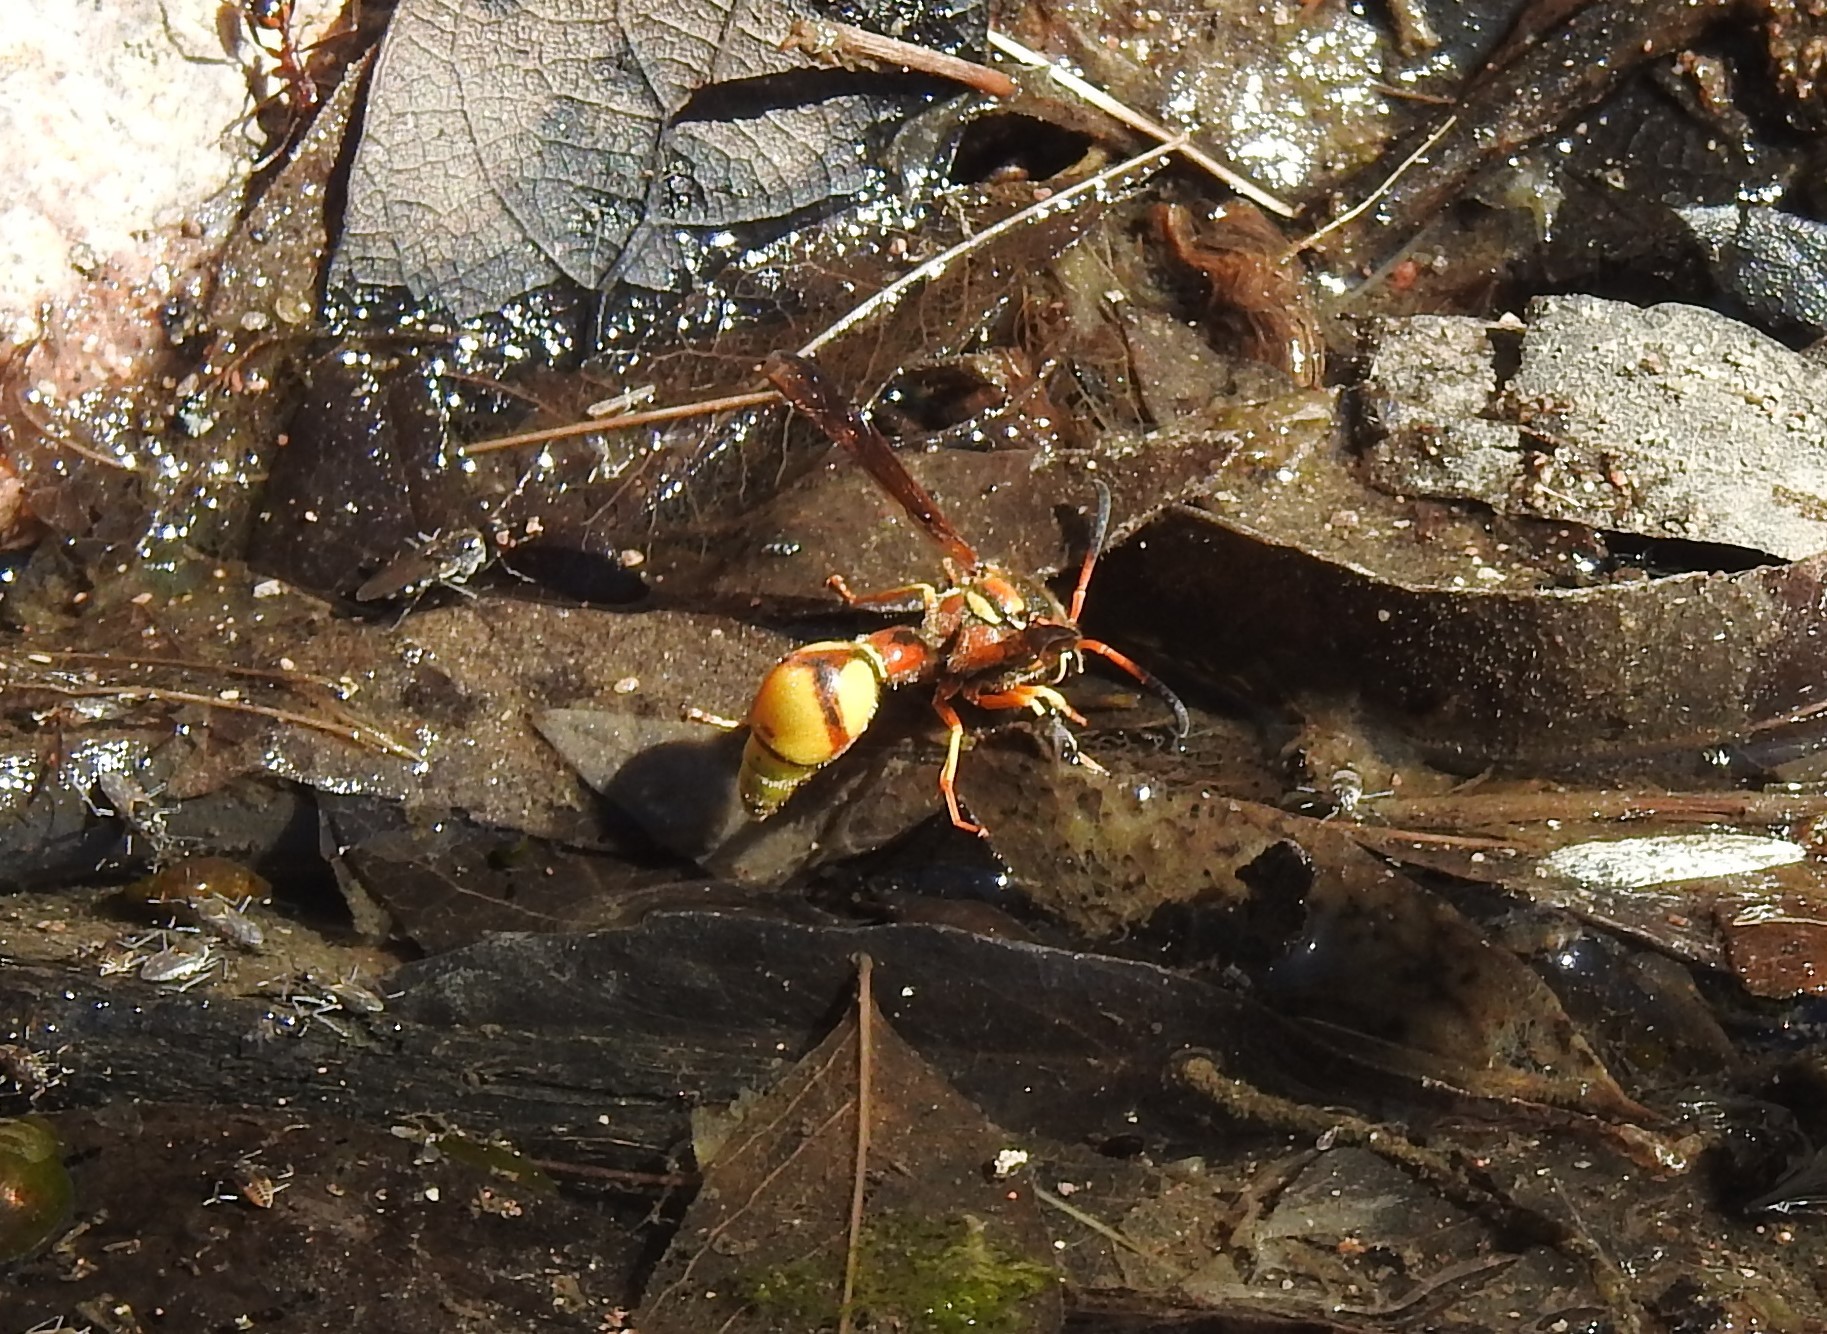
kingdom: Animalia
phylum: Arthropoda
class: Insecta
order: Hymenoptera
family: Vespidae
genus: Eumenes
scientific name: Eumenes bollii
